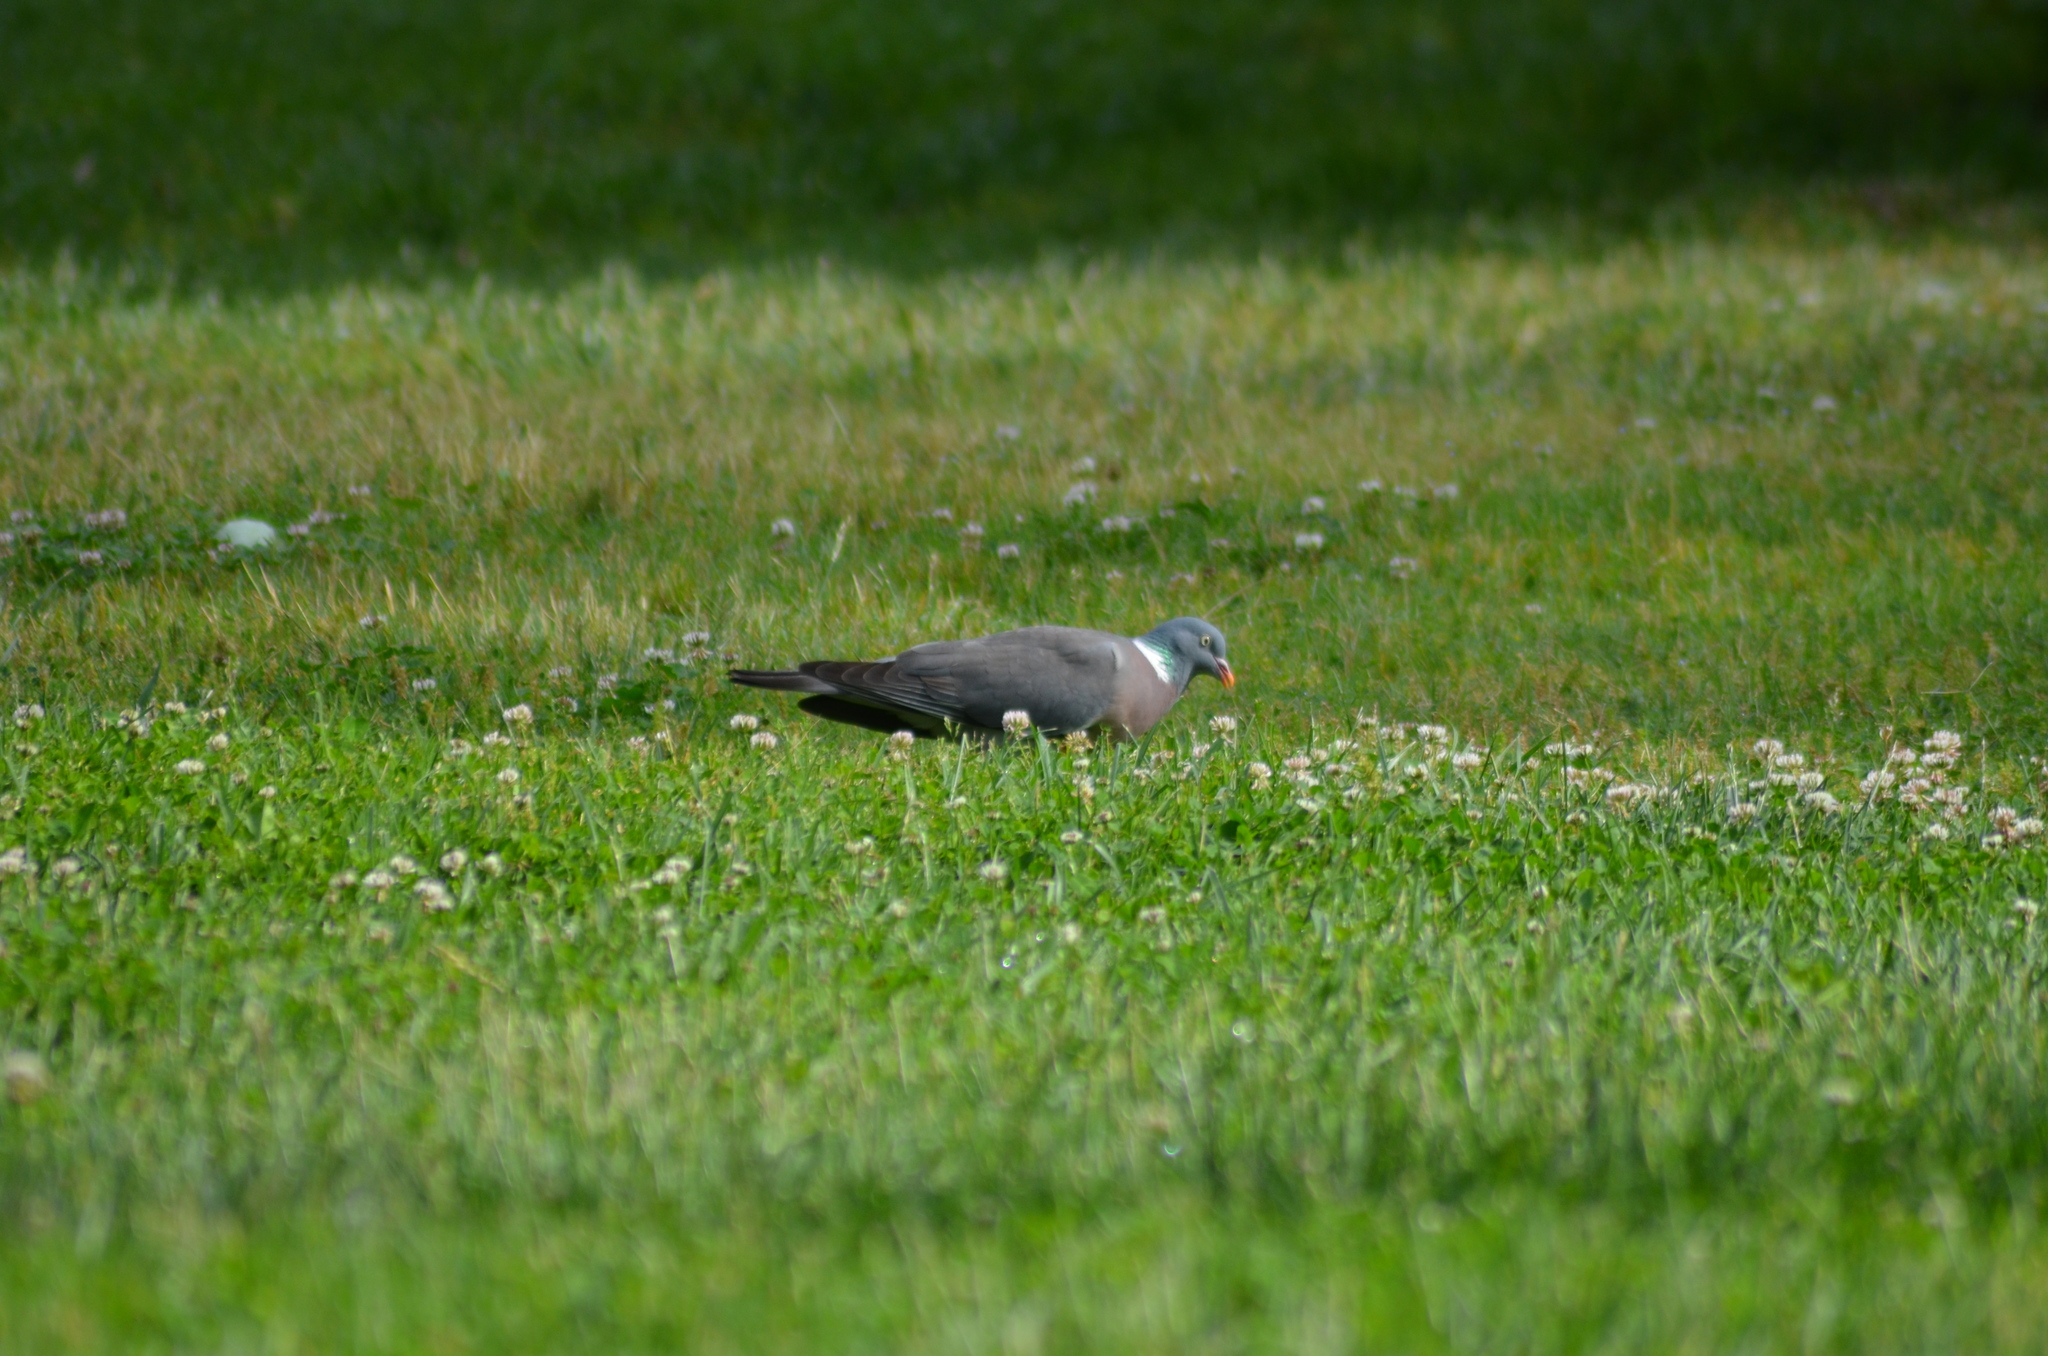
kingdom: Animalia
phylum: Chordata
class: Aves
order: Columbiformes
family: Columbidae
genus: Columba
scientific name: Columba palumbus
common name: Common wood pigeon
